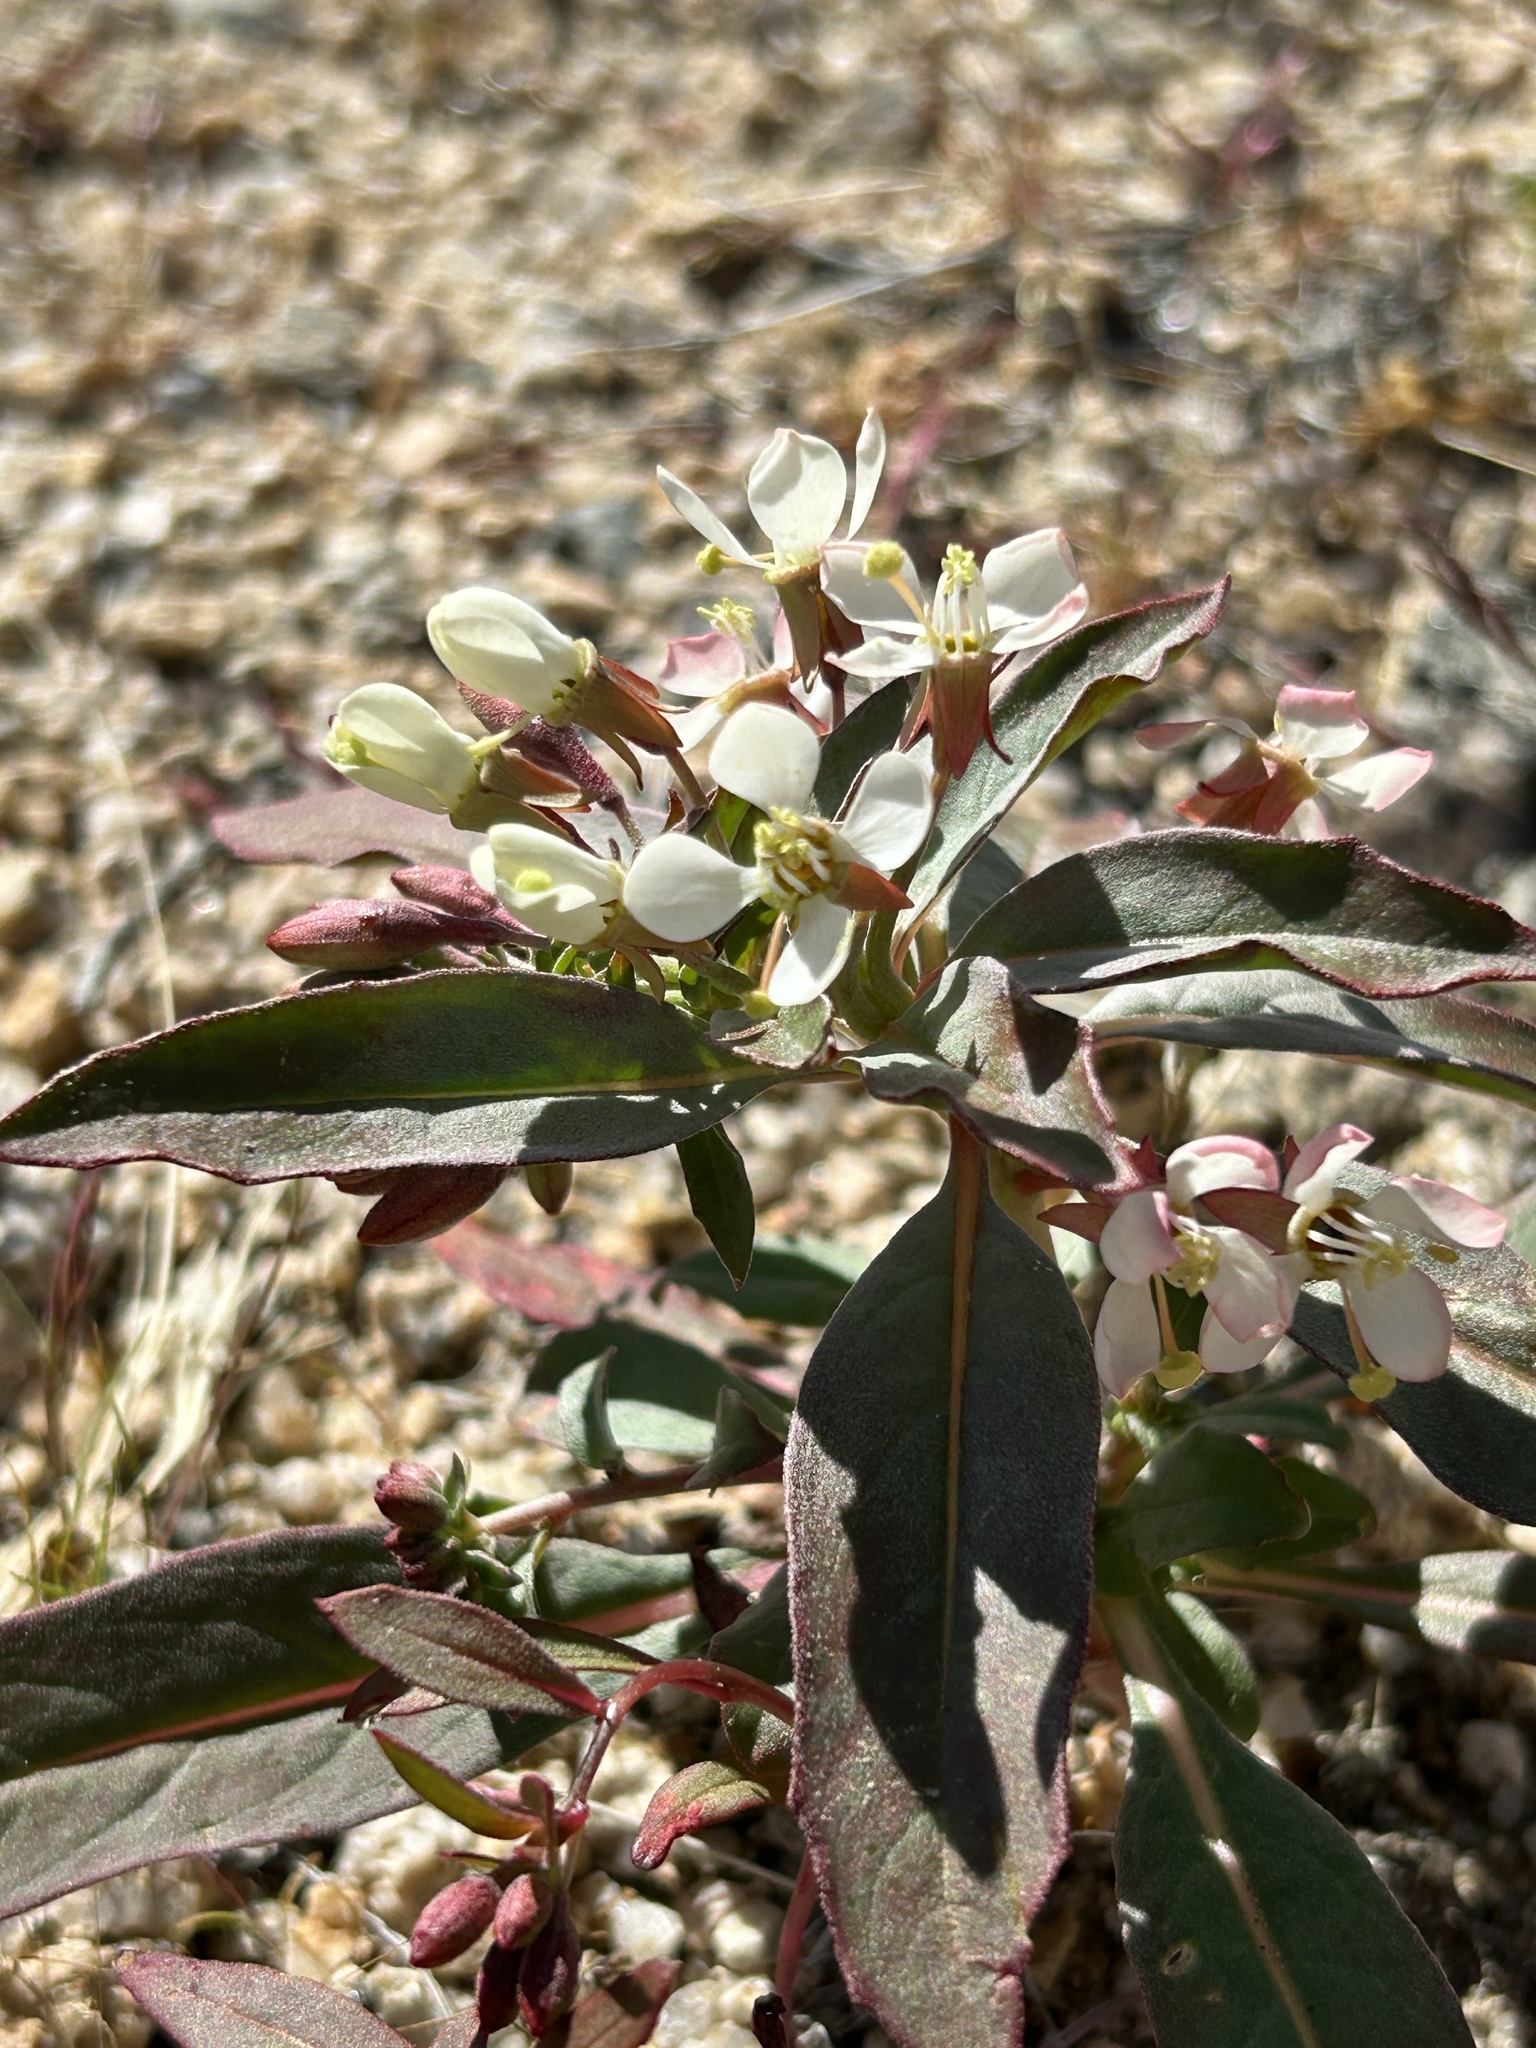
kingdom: Plantae
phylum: Tracheophyta
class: Magnoliopsida
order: Myrtales
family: Onagraceae
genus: Eremothera
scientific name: Eremothera boothii
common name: Booth's evening primrose
